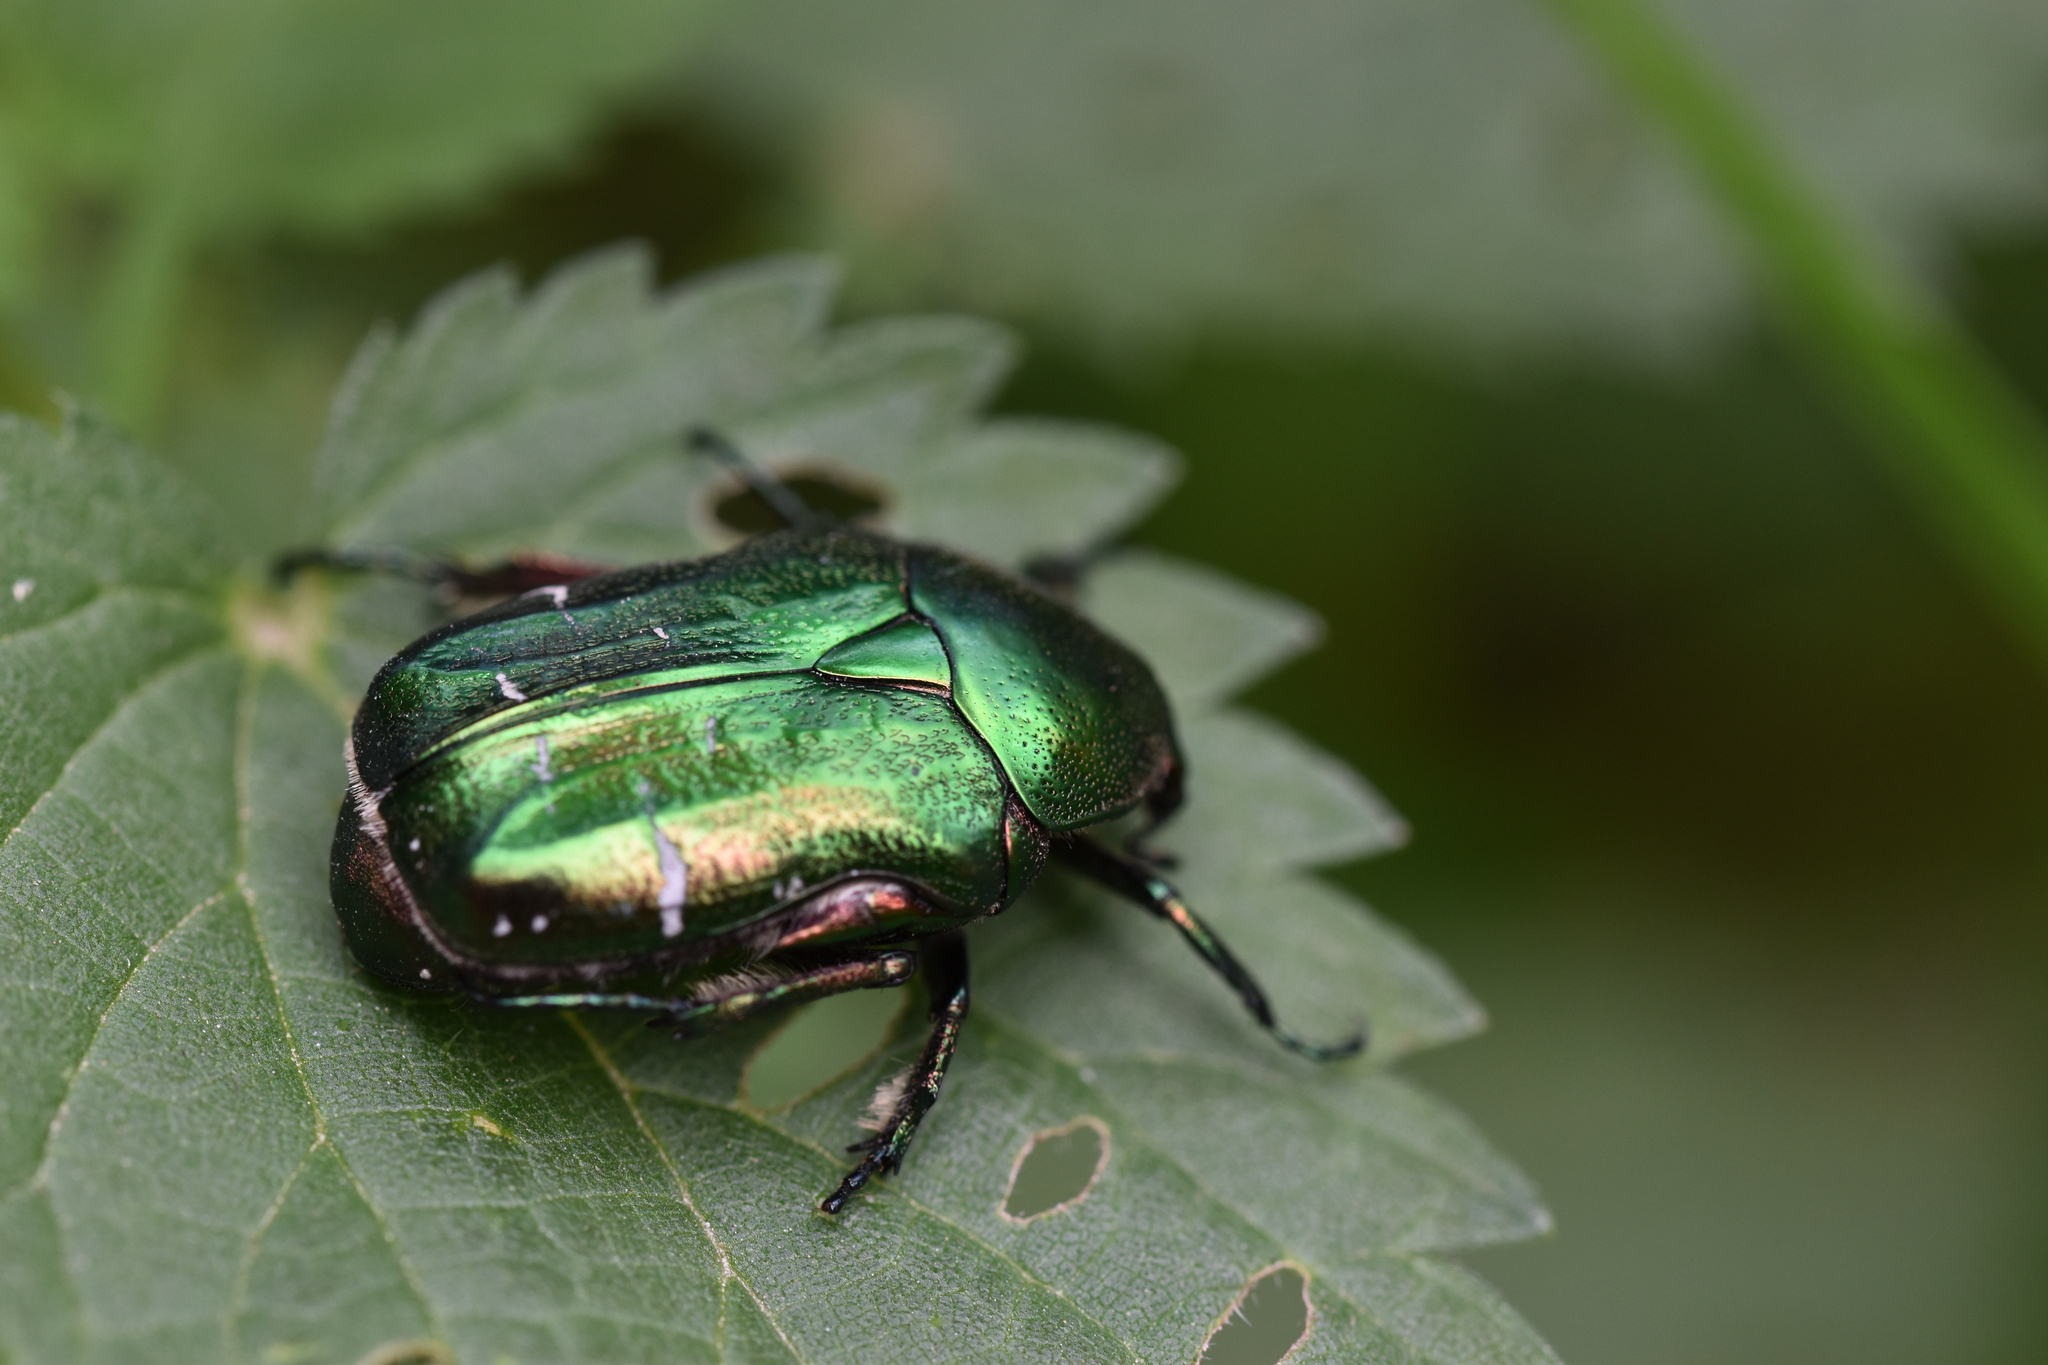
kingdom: Animalia
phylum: Arthropoda
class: Insecta
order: Coleoptera
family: Scarabaeidae
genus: Cetonia
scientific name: Cetonia aurata
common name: Rose chafer
